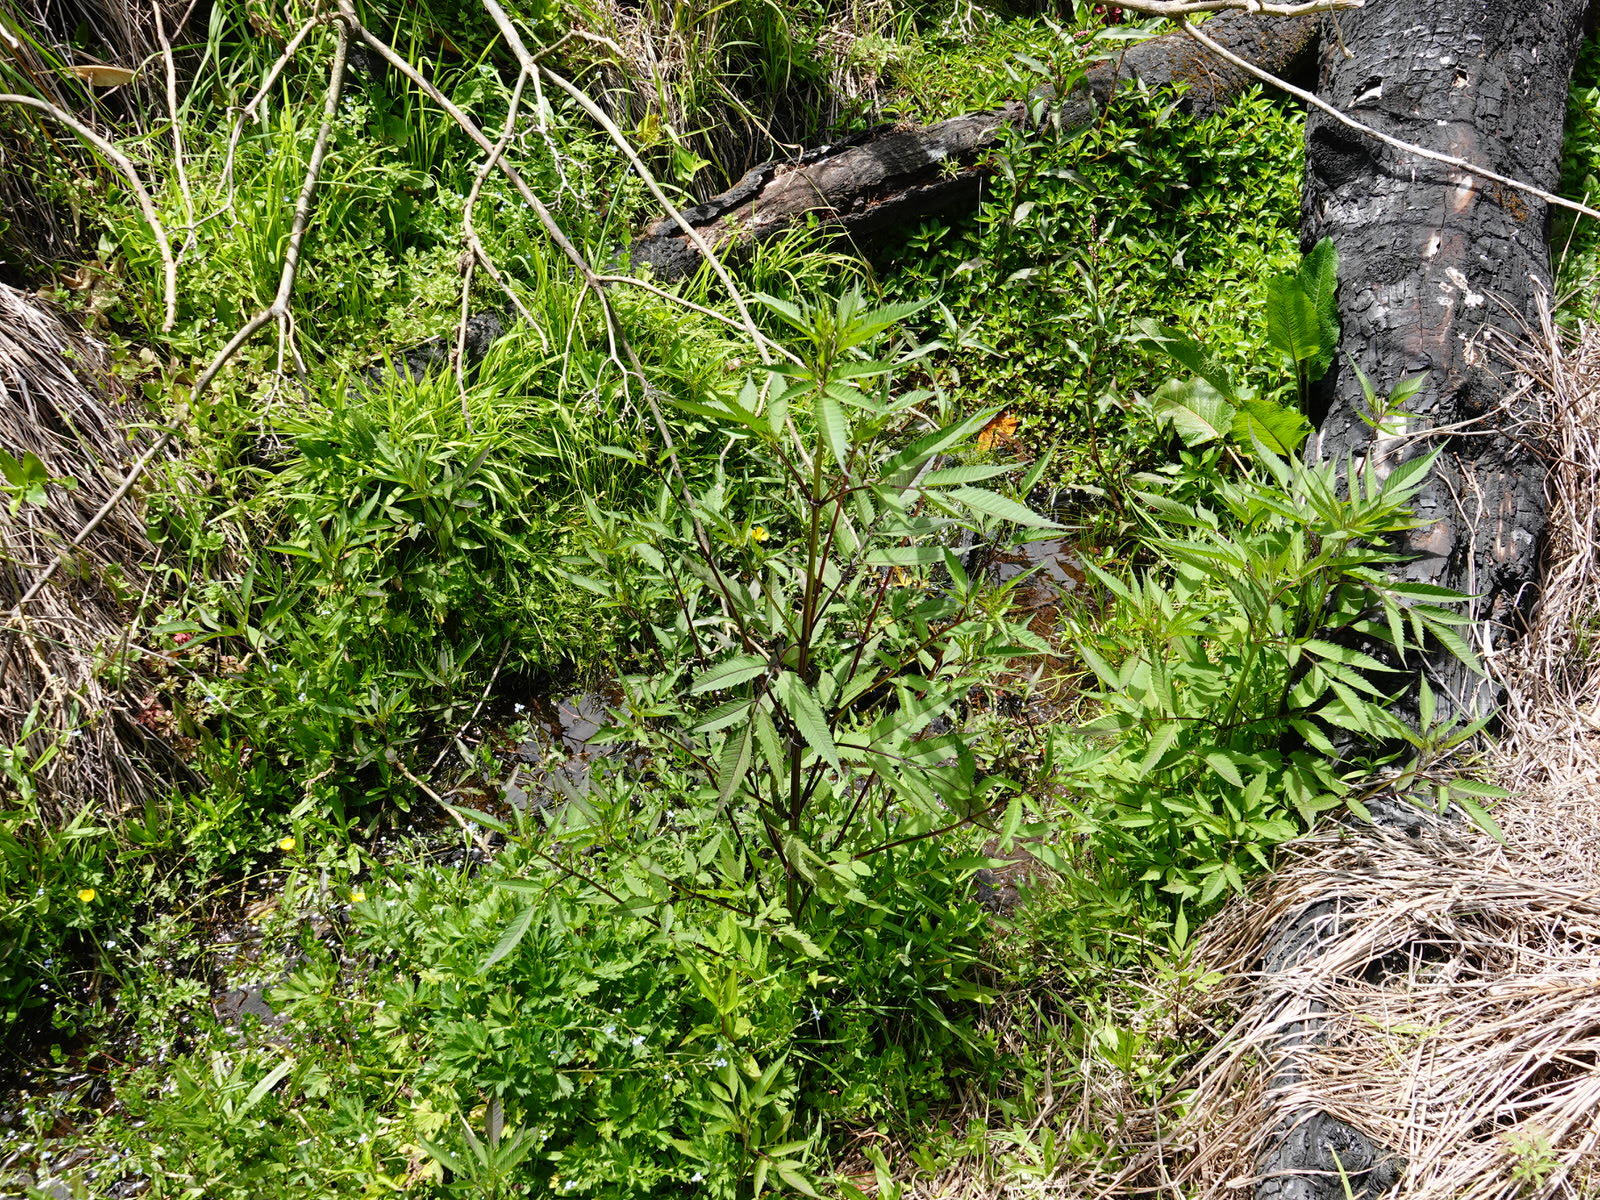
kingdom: Plantae
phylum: Tracheophyta
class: Magnoliopsida
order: Asterales
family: Asteraceae
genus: Bidens
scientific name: Bidens frondosa
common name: Beggarticks
